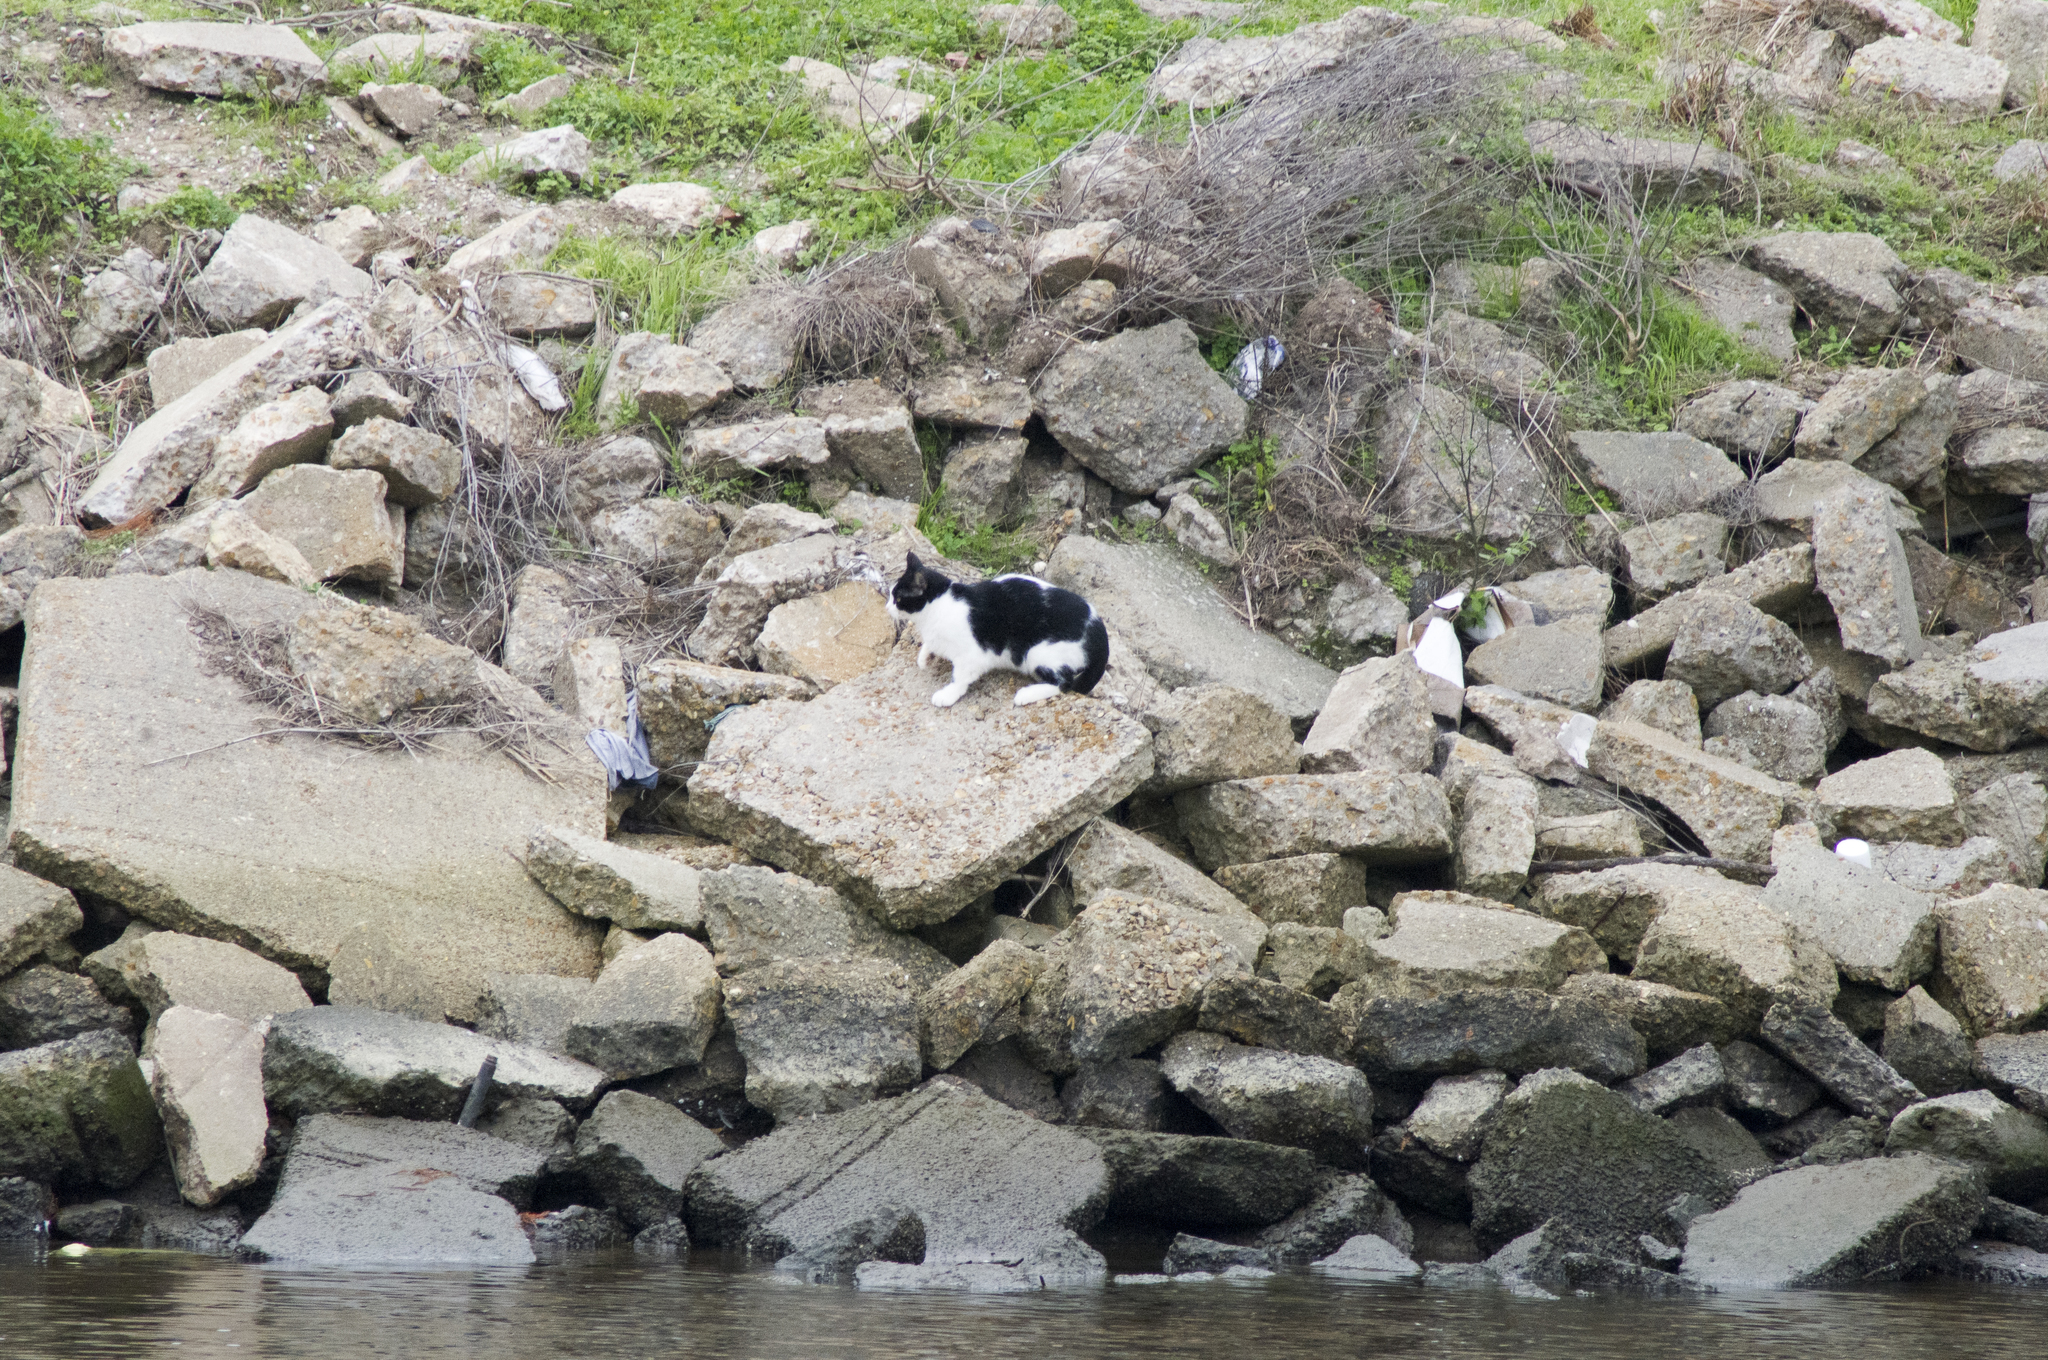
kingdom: Animalia
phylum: Chordata
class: Mammalia
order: Carnivora
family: Felidae
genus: Felis
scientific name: Felis catus
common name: Domestic cat
